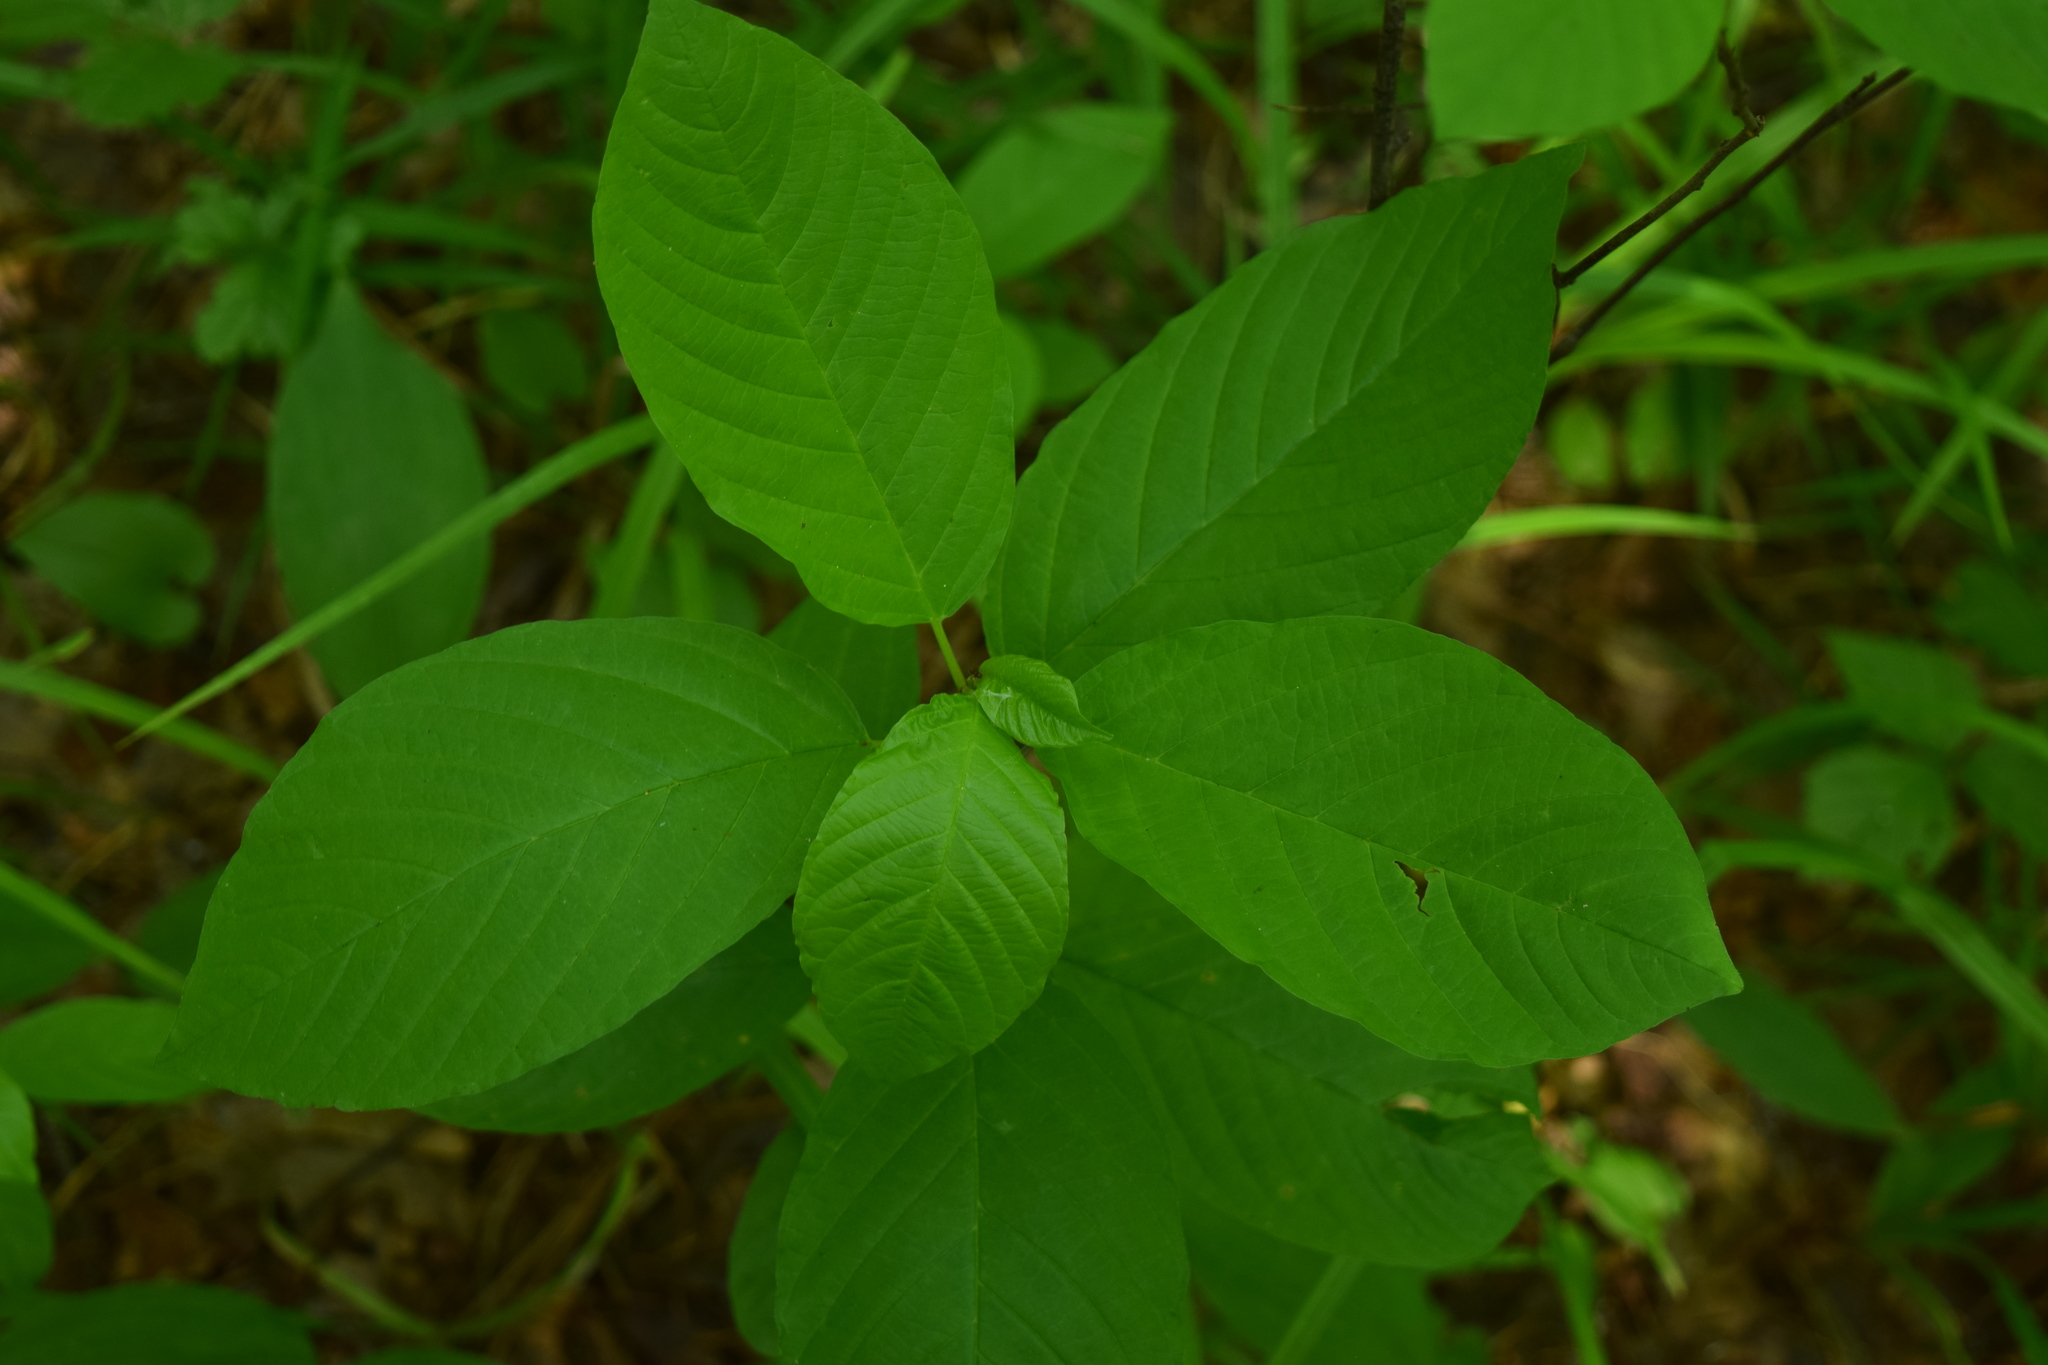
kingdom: Plantae
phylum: Tracheophyta
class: Magnoliopsida
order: Rosales
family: Rhamnaceae
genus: Frangula
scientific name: Frangula alnus
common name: Alder buckthorn
